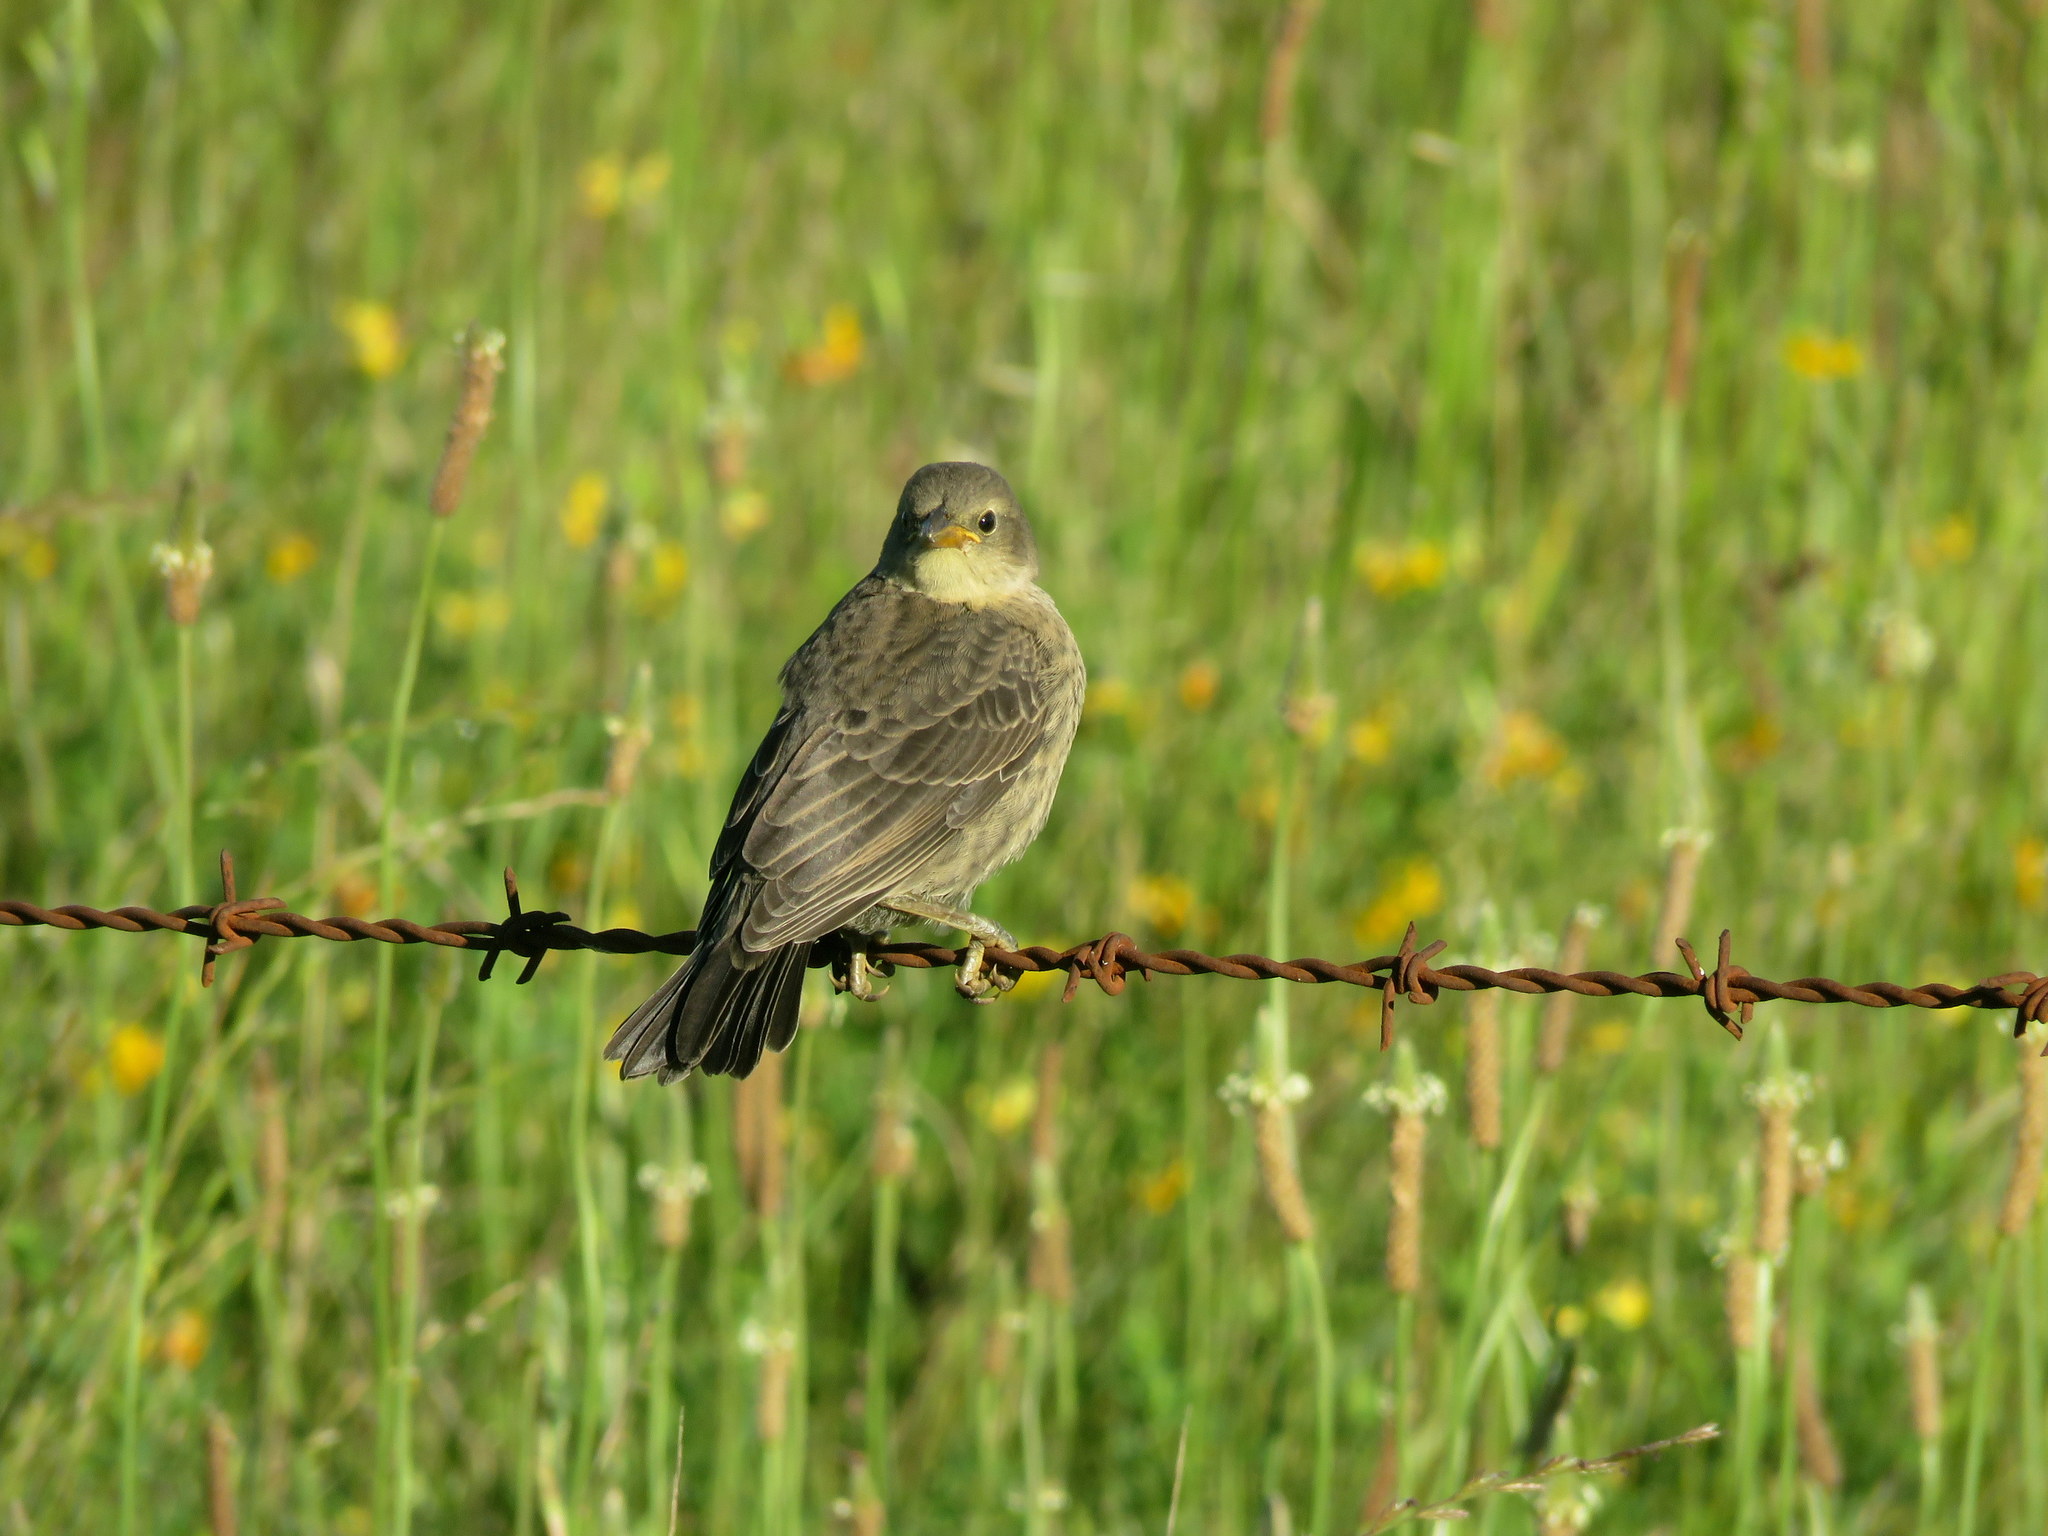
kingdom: Animalia
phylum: Chordata
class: Aves
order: Passeriformes
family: Thraupidae
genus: Embernagra
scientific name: Embernagra platensis
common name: Pampa finch
